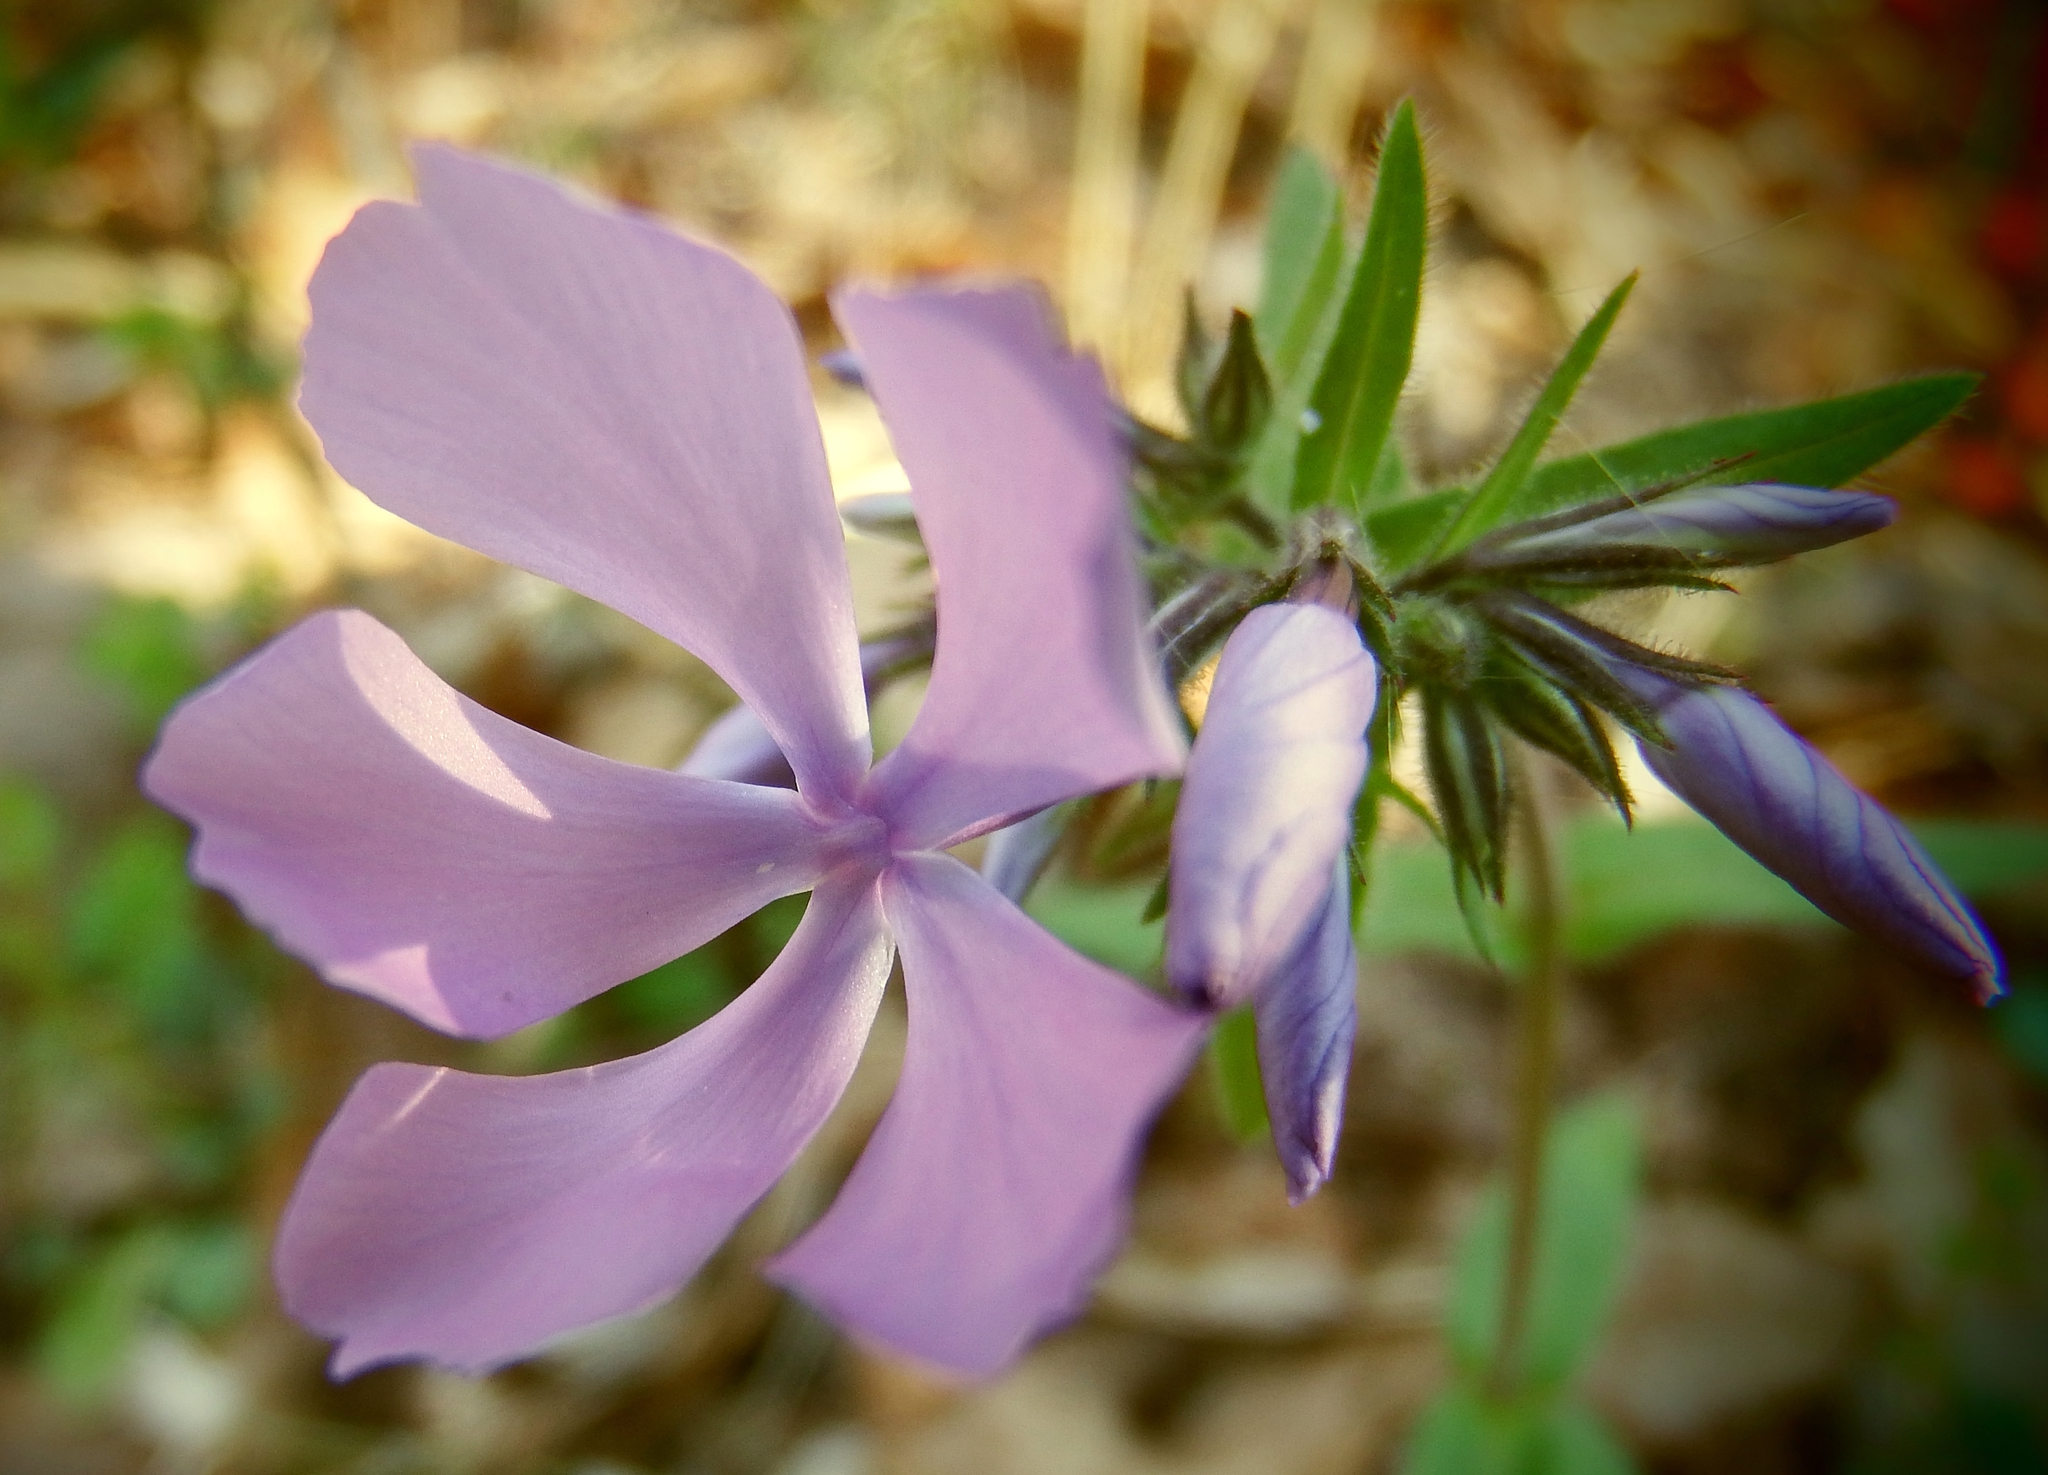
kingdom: Plantae
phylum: Tracheophyta
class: Magnoliopsida
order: Ericales
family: Polemoniaceae
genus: Phlox
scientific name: Phlox divaricata
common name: Blue phlox
